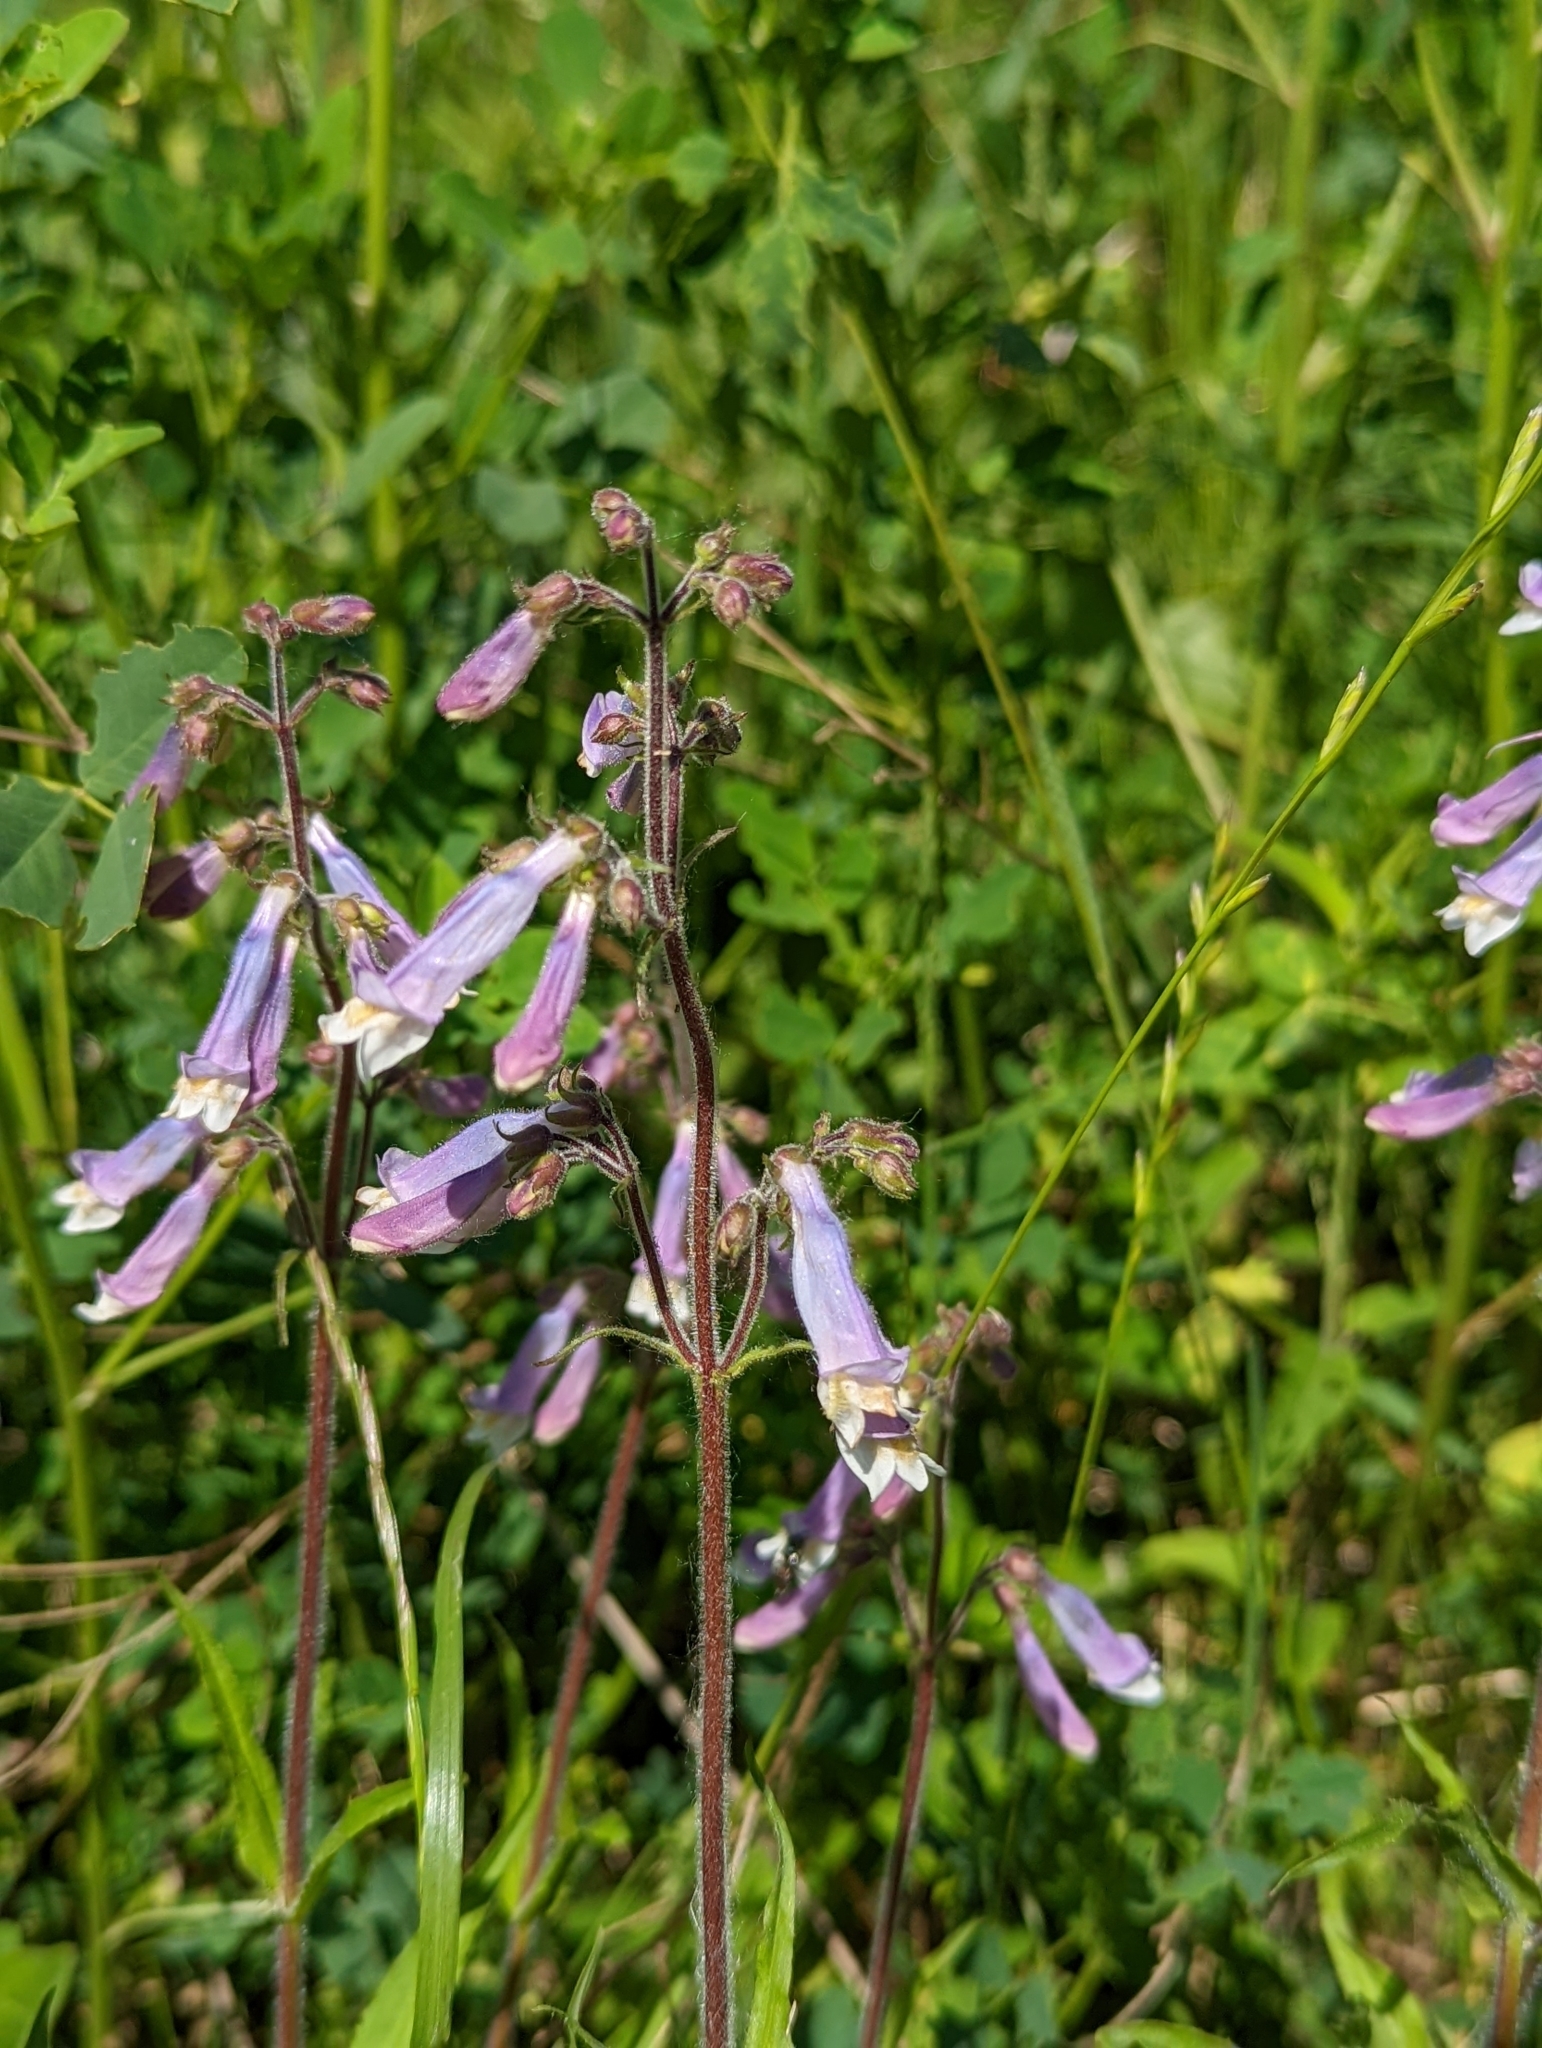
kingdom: Plantae
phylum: Tracheophyta
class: Magnoliopsida
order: Lamiales
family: Plantaginaceae
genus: Penstemon
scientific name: Penstemon hirsutus
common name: Hairy beardtongue
